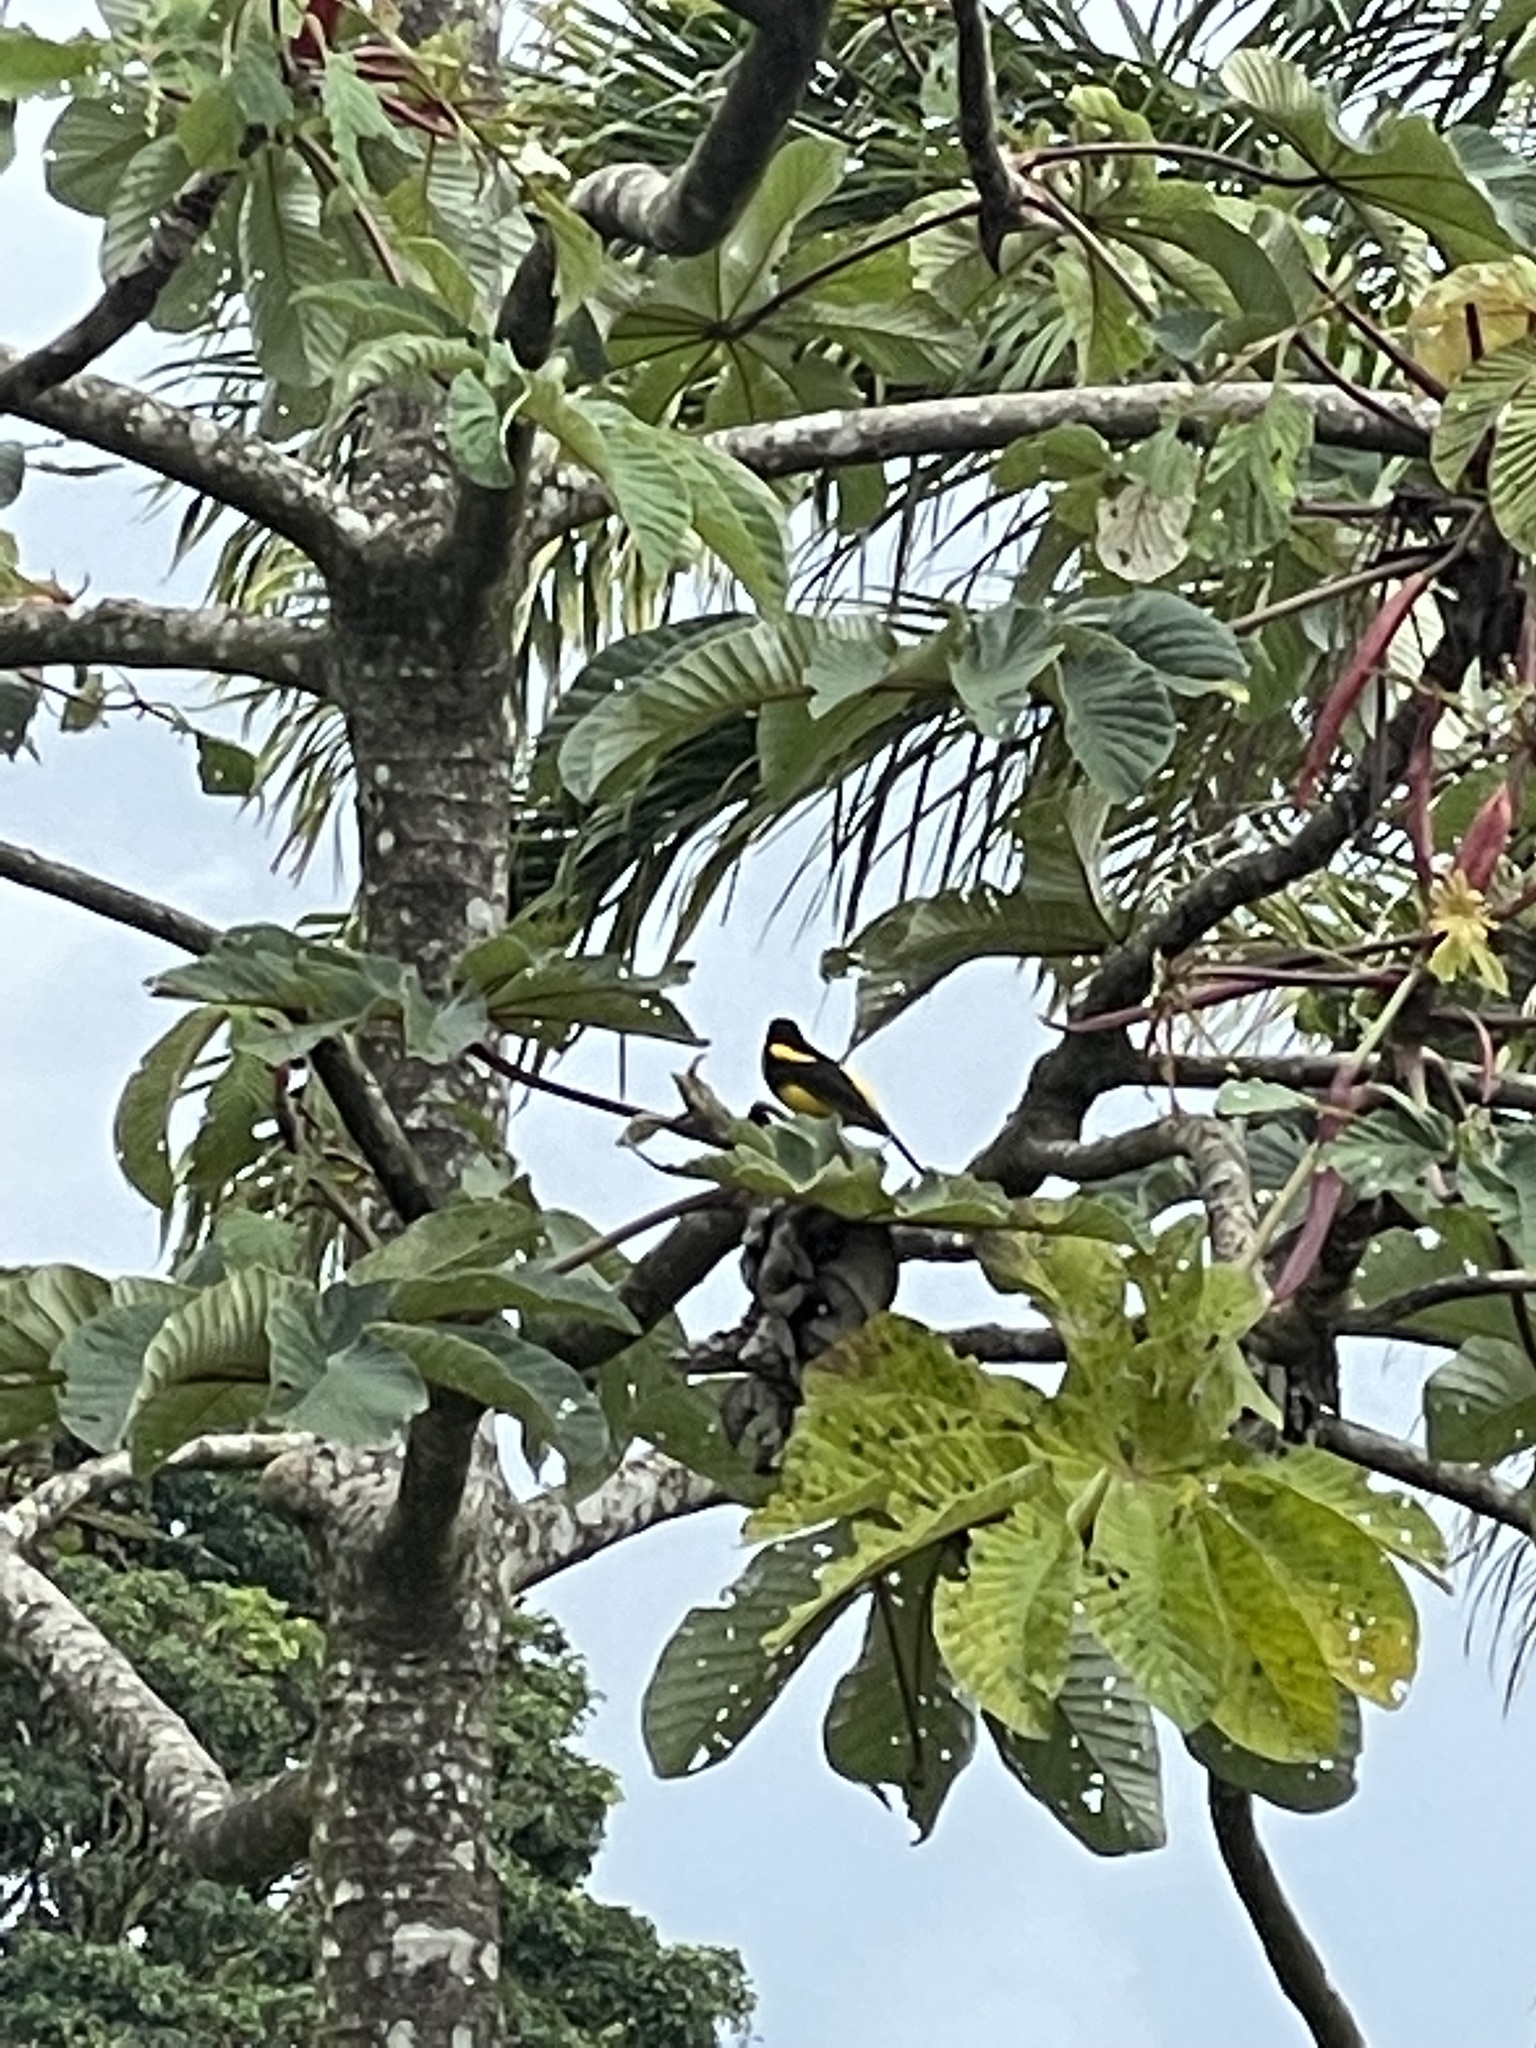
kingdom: Animalia
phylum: Chordata
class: Aves
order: Passeriformes
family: Icteridae
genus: Icterus
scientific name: Icterus prosthemelas
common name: Black-cowled oriole
